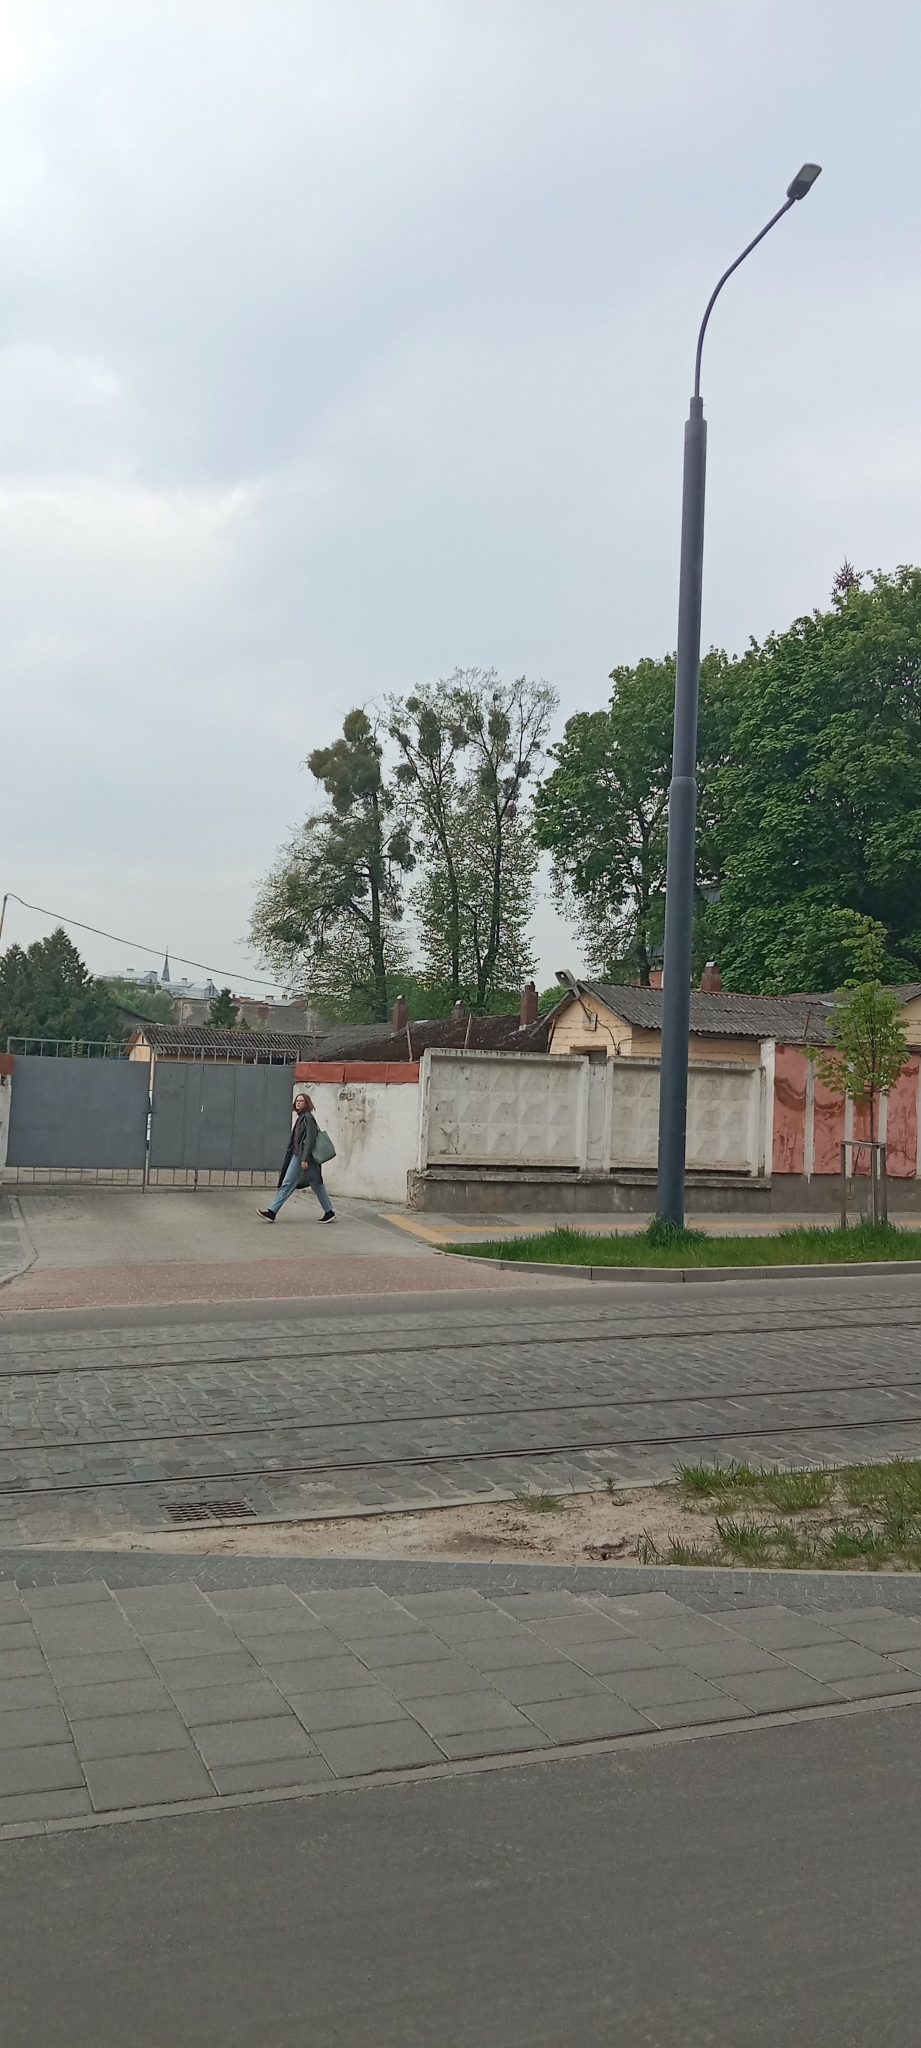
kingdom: Plantae
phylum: Tracheophyta
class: Magnoliopsida
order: Santalales
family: Viscaceae
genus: Viscum
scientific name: Viscum album
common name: Mistletoe
